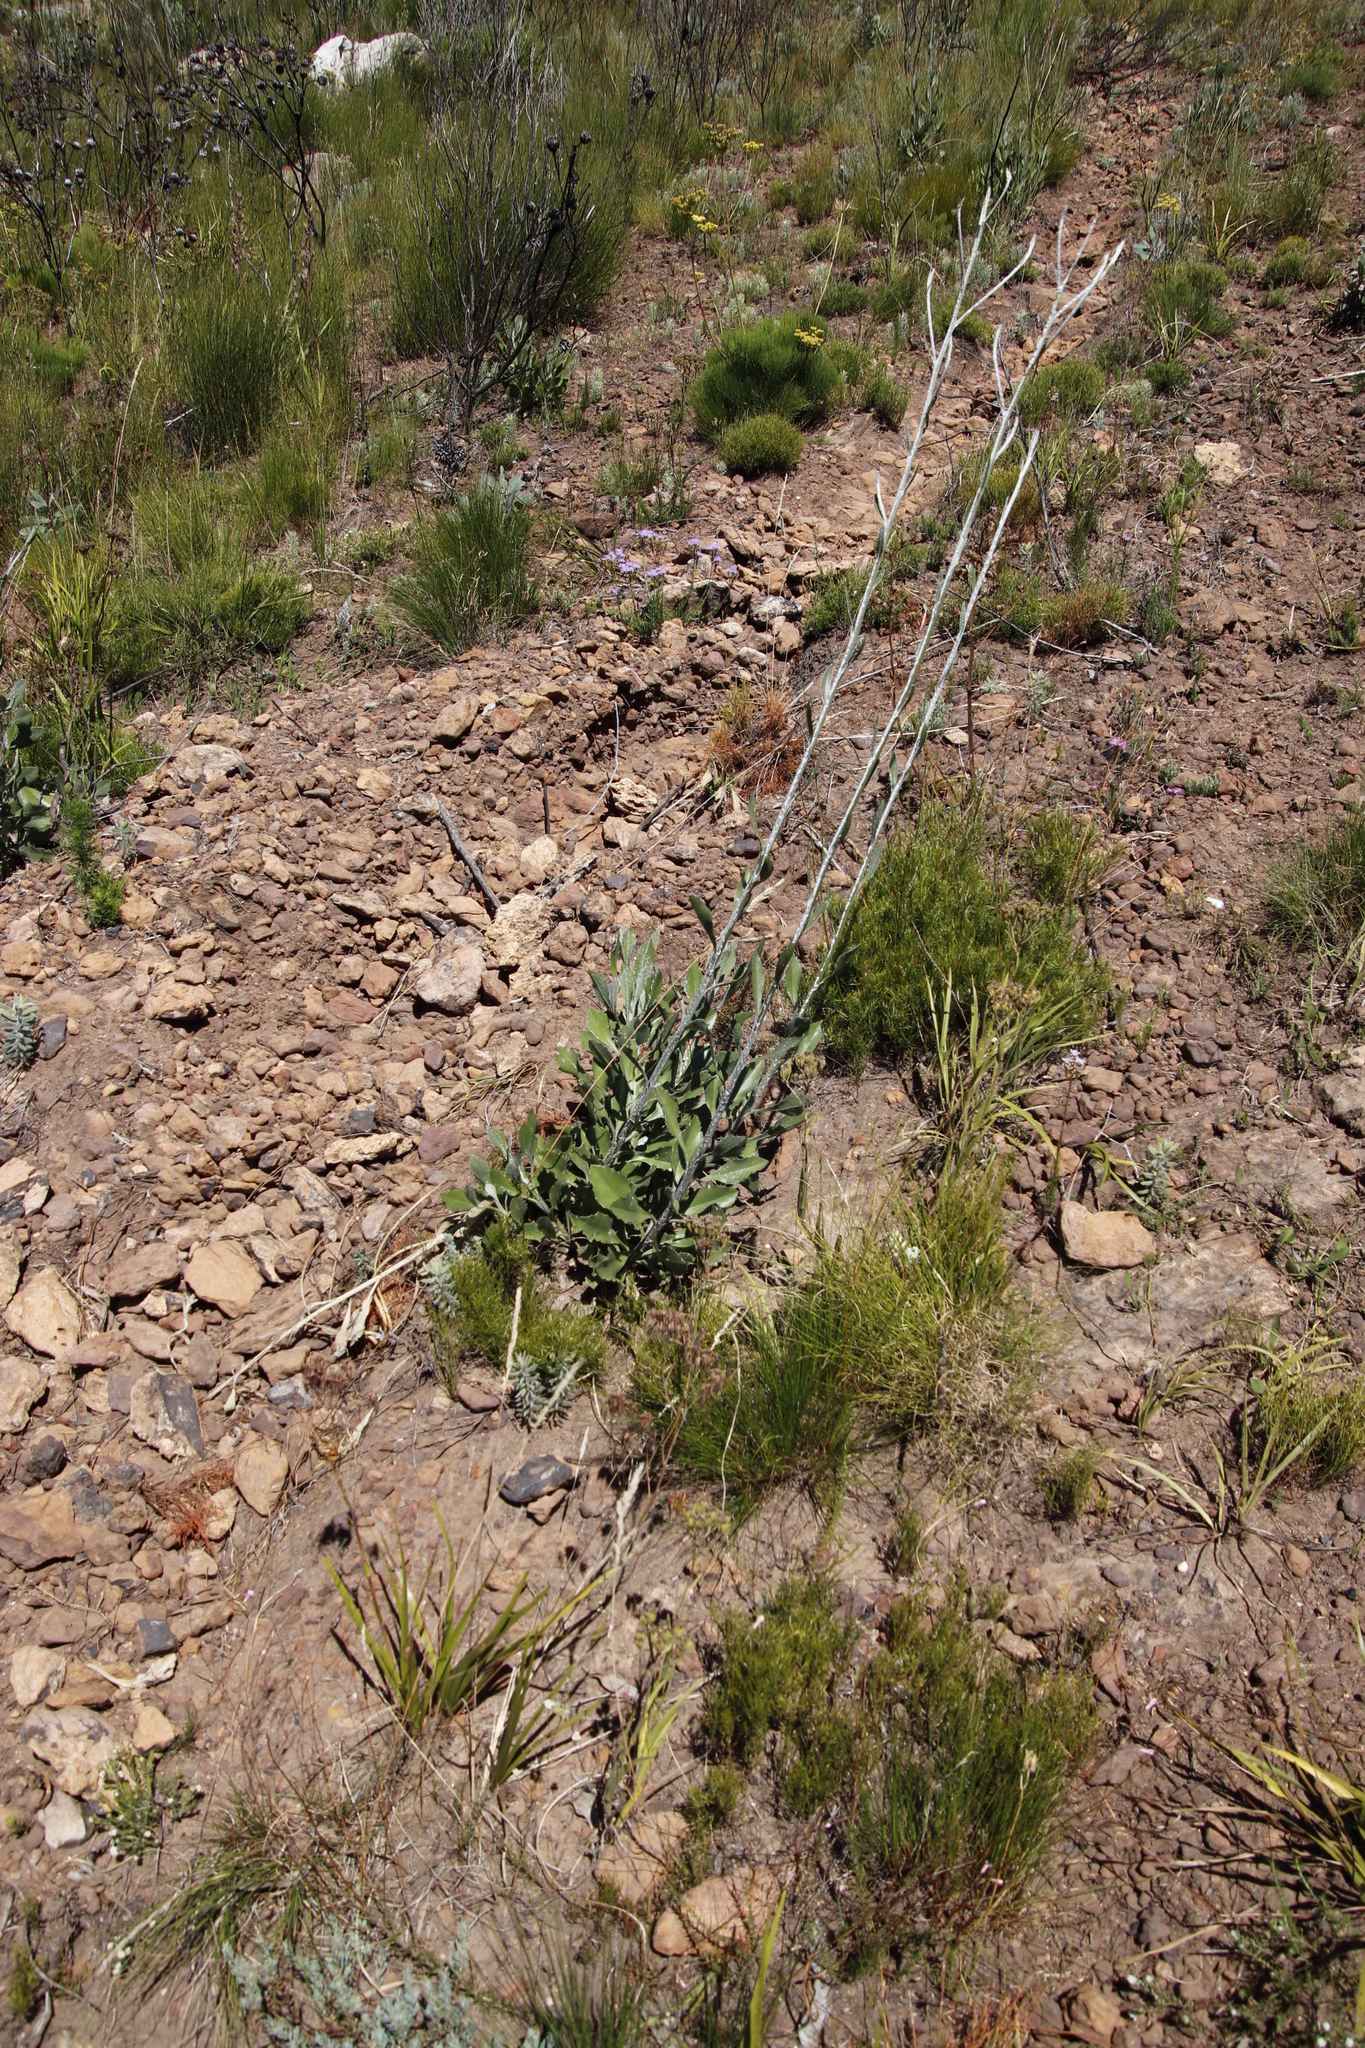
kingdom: Plantae
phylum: Tracheophyta
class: Magnoliopsida
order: Asterales
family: Asteraceae
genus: Osteospermum
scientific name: Osteospermum junceum
